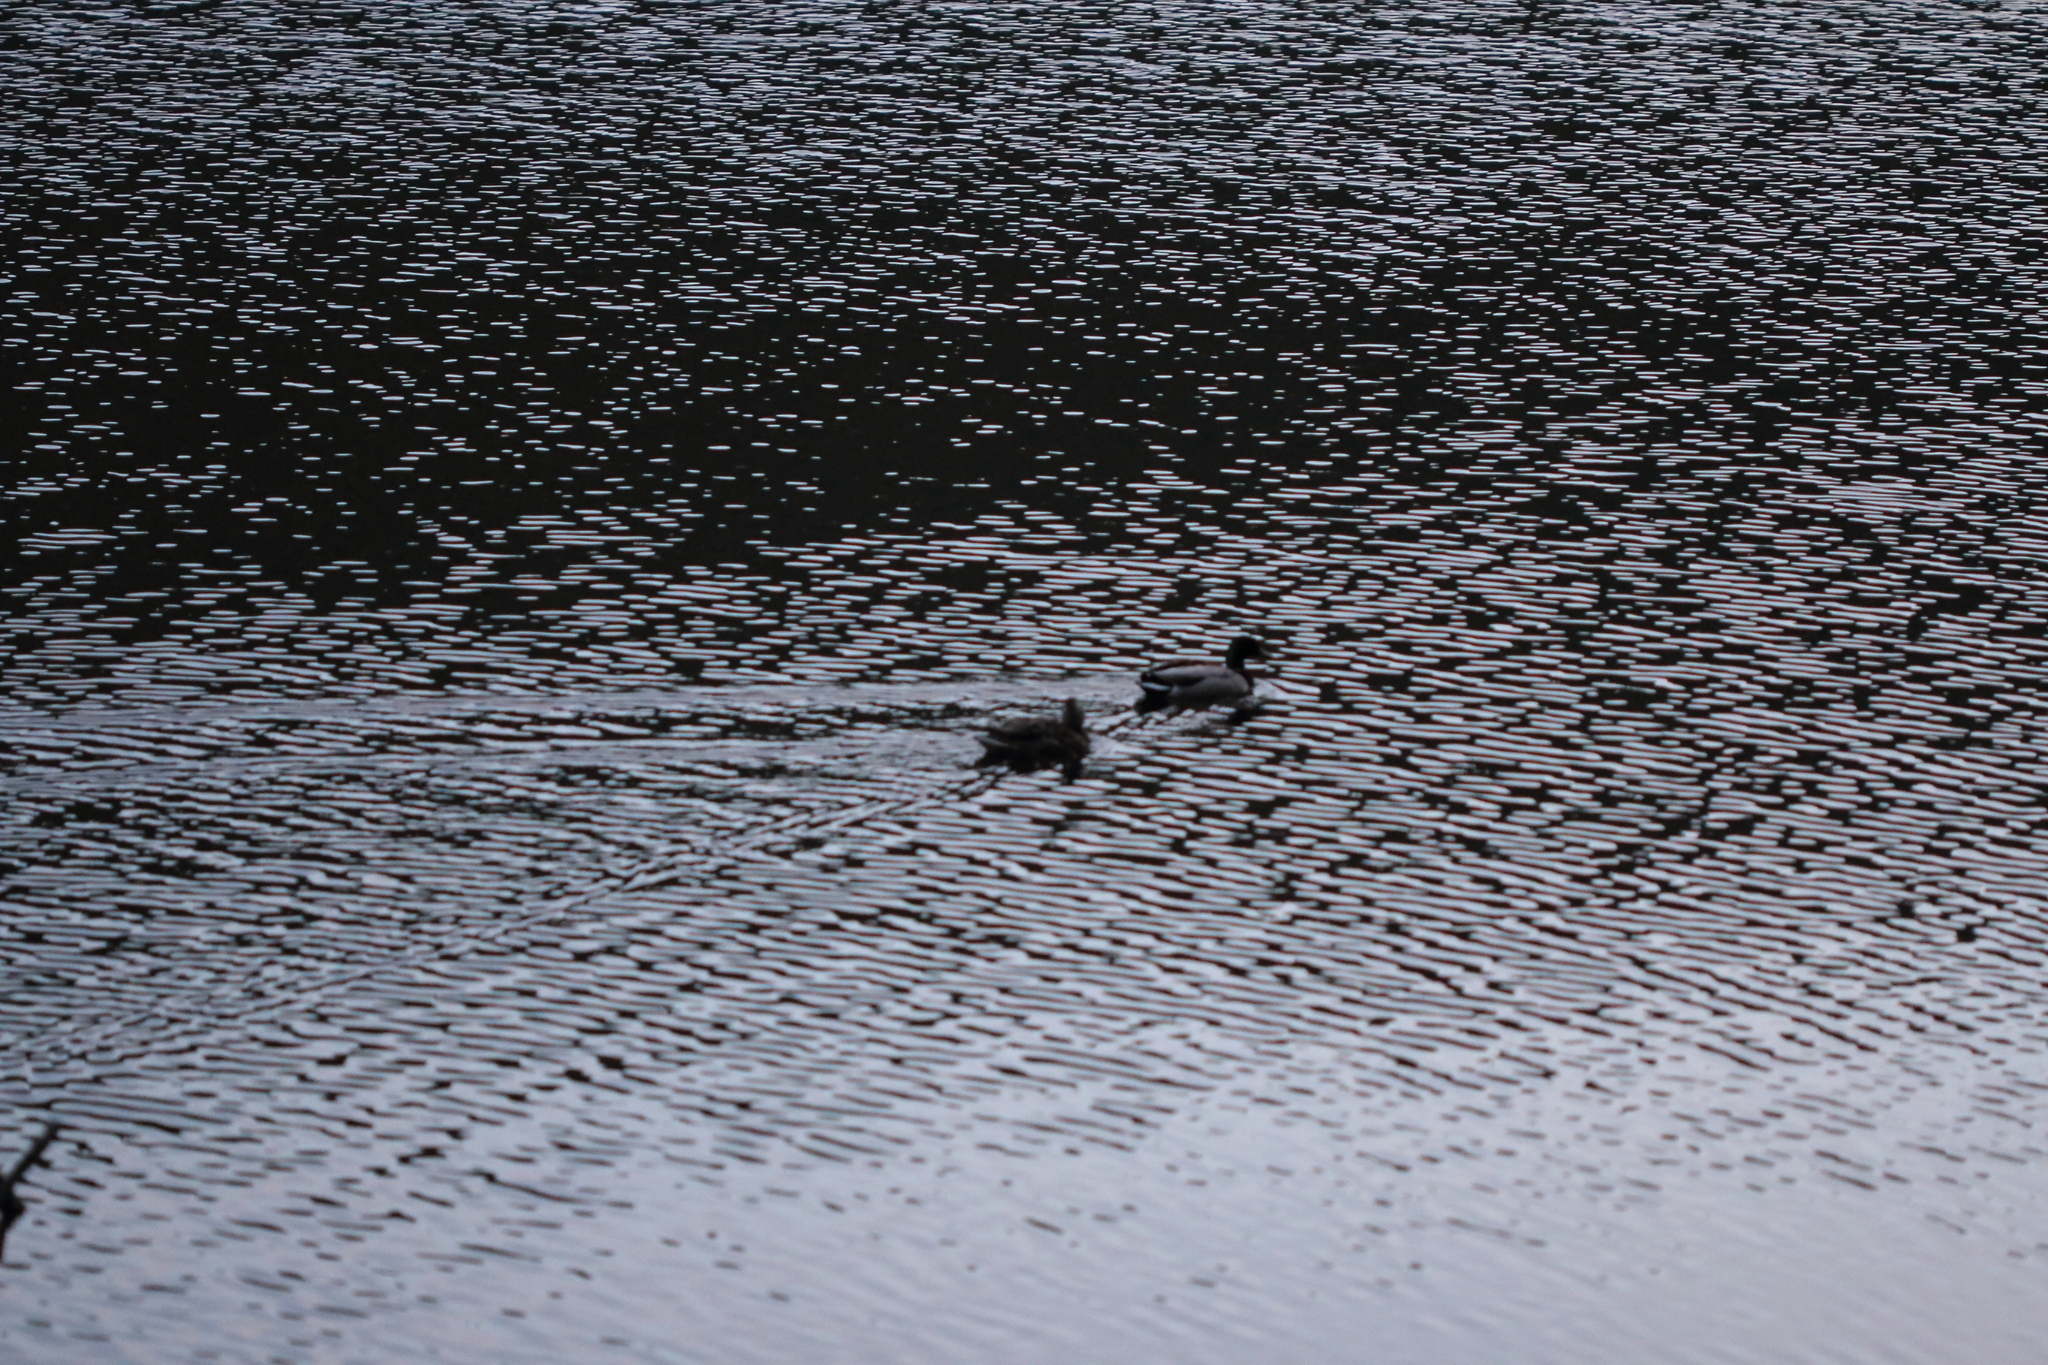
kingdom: Animalia
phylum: Chordata
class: Aves
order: Anseriformes
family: Anatidae
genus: Anas
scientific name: Anas platyrhynchos
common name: Mallard
